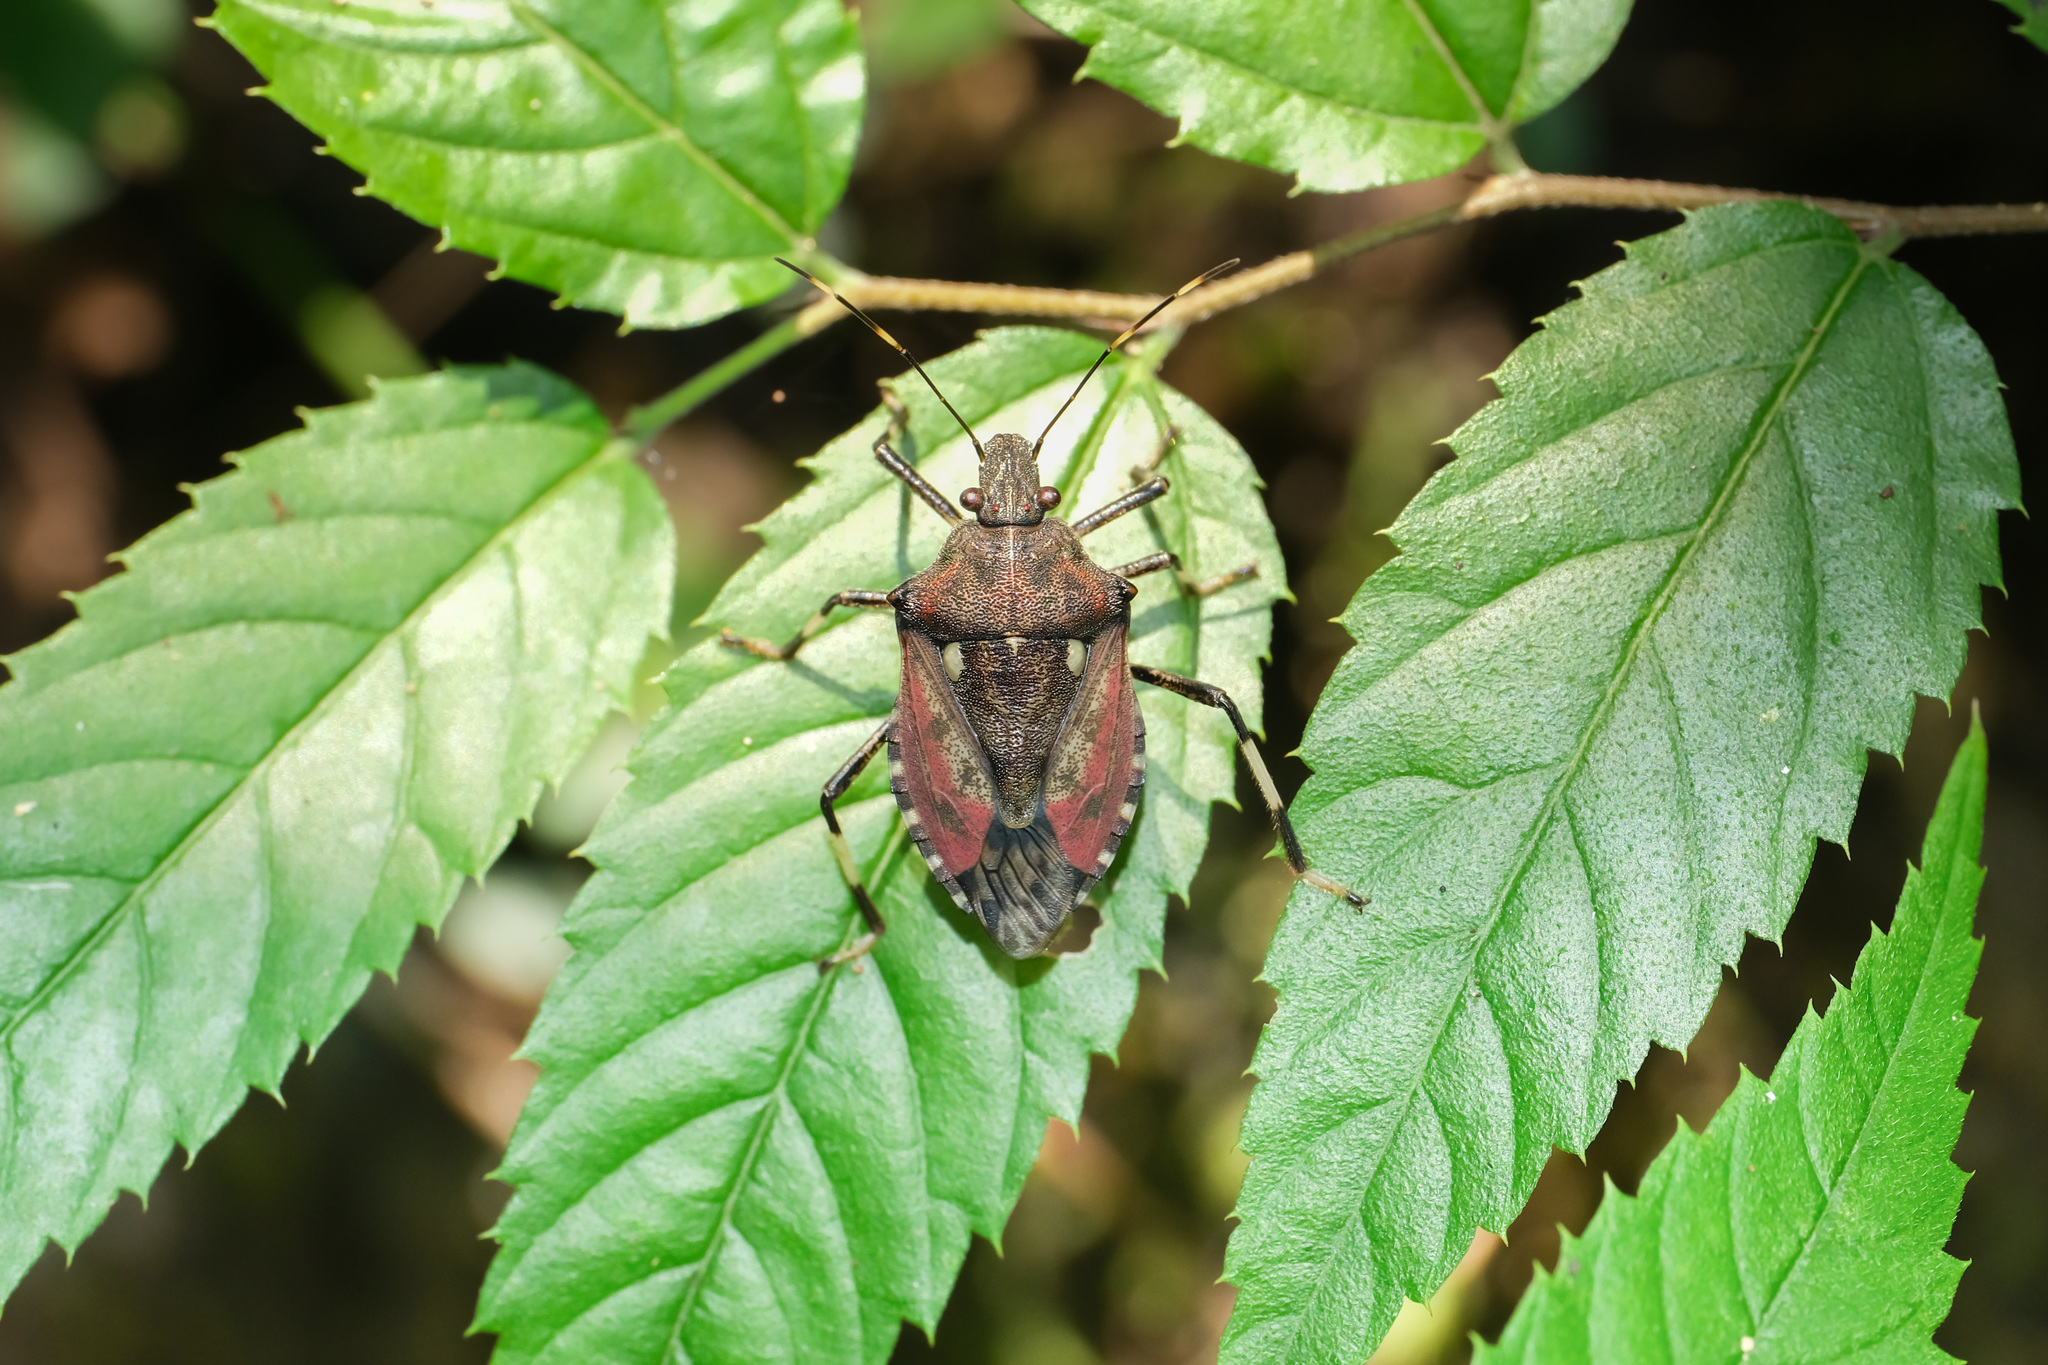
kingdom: Animalia
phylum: Arthropoda
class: Insecta
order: Hemiptera
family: Pentatomidae
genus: Dalpada
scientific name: Dalpada cinctipes
